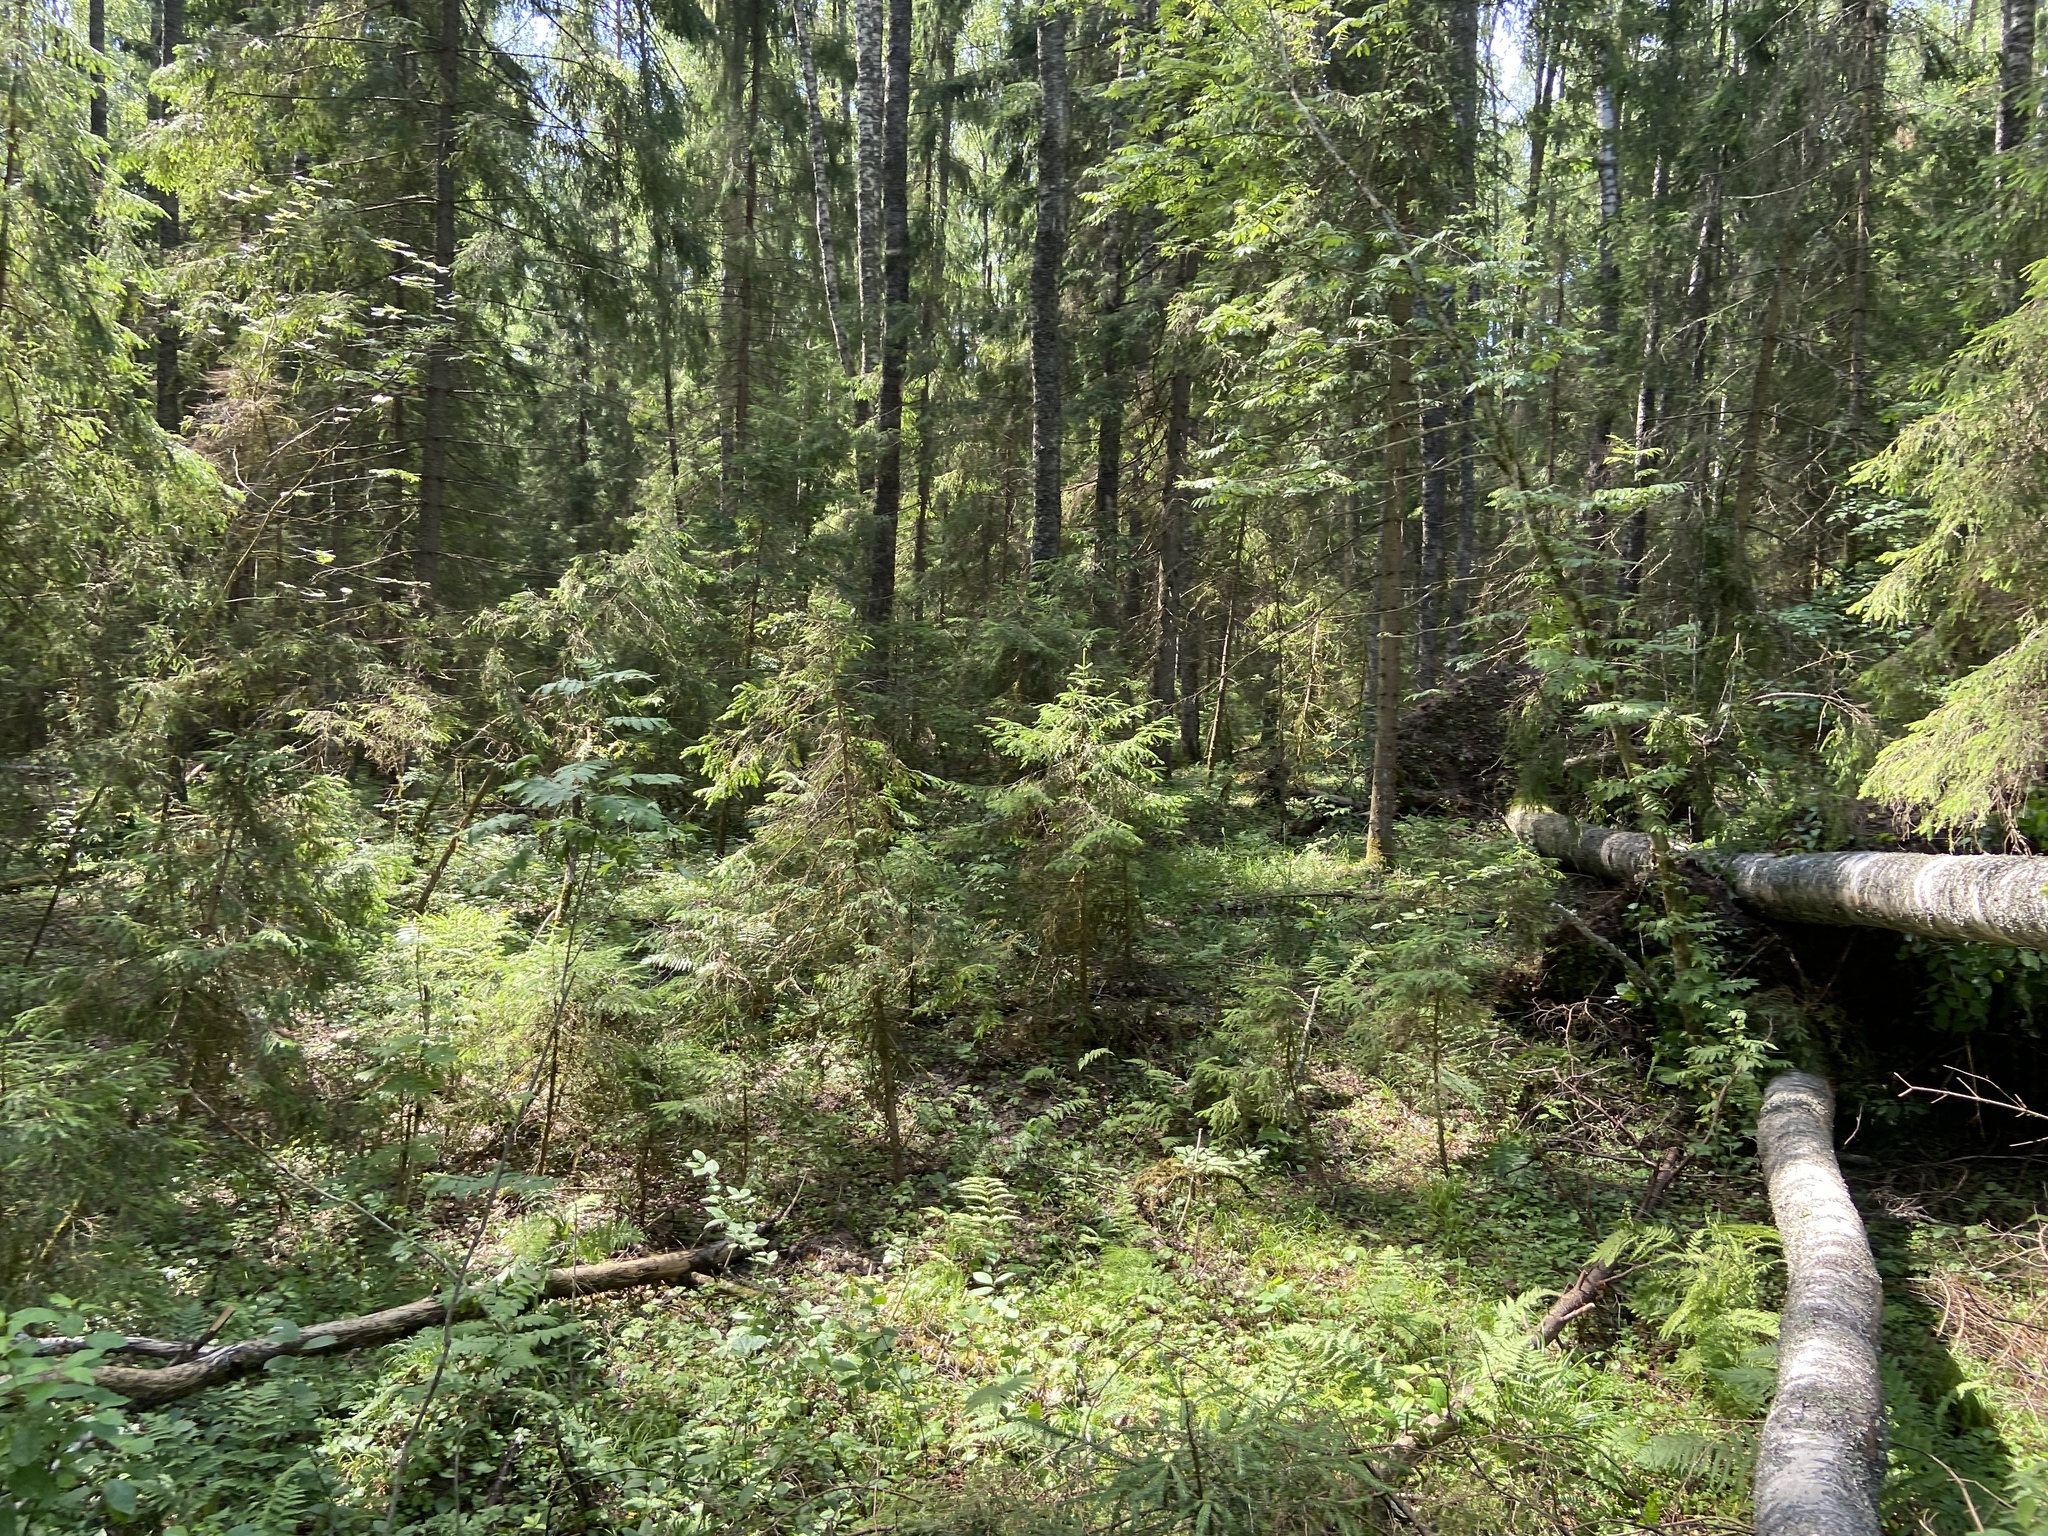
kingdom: Plantae
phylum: Tracheophyta
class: Pinopsida
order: Pinales
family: Pinaceae
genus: Picea
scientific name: Picea abies
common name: Norway spruce
